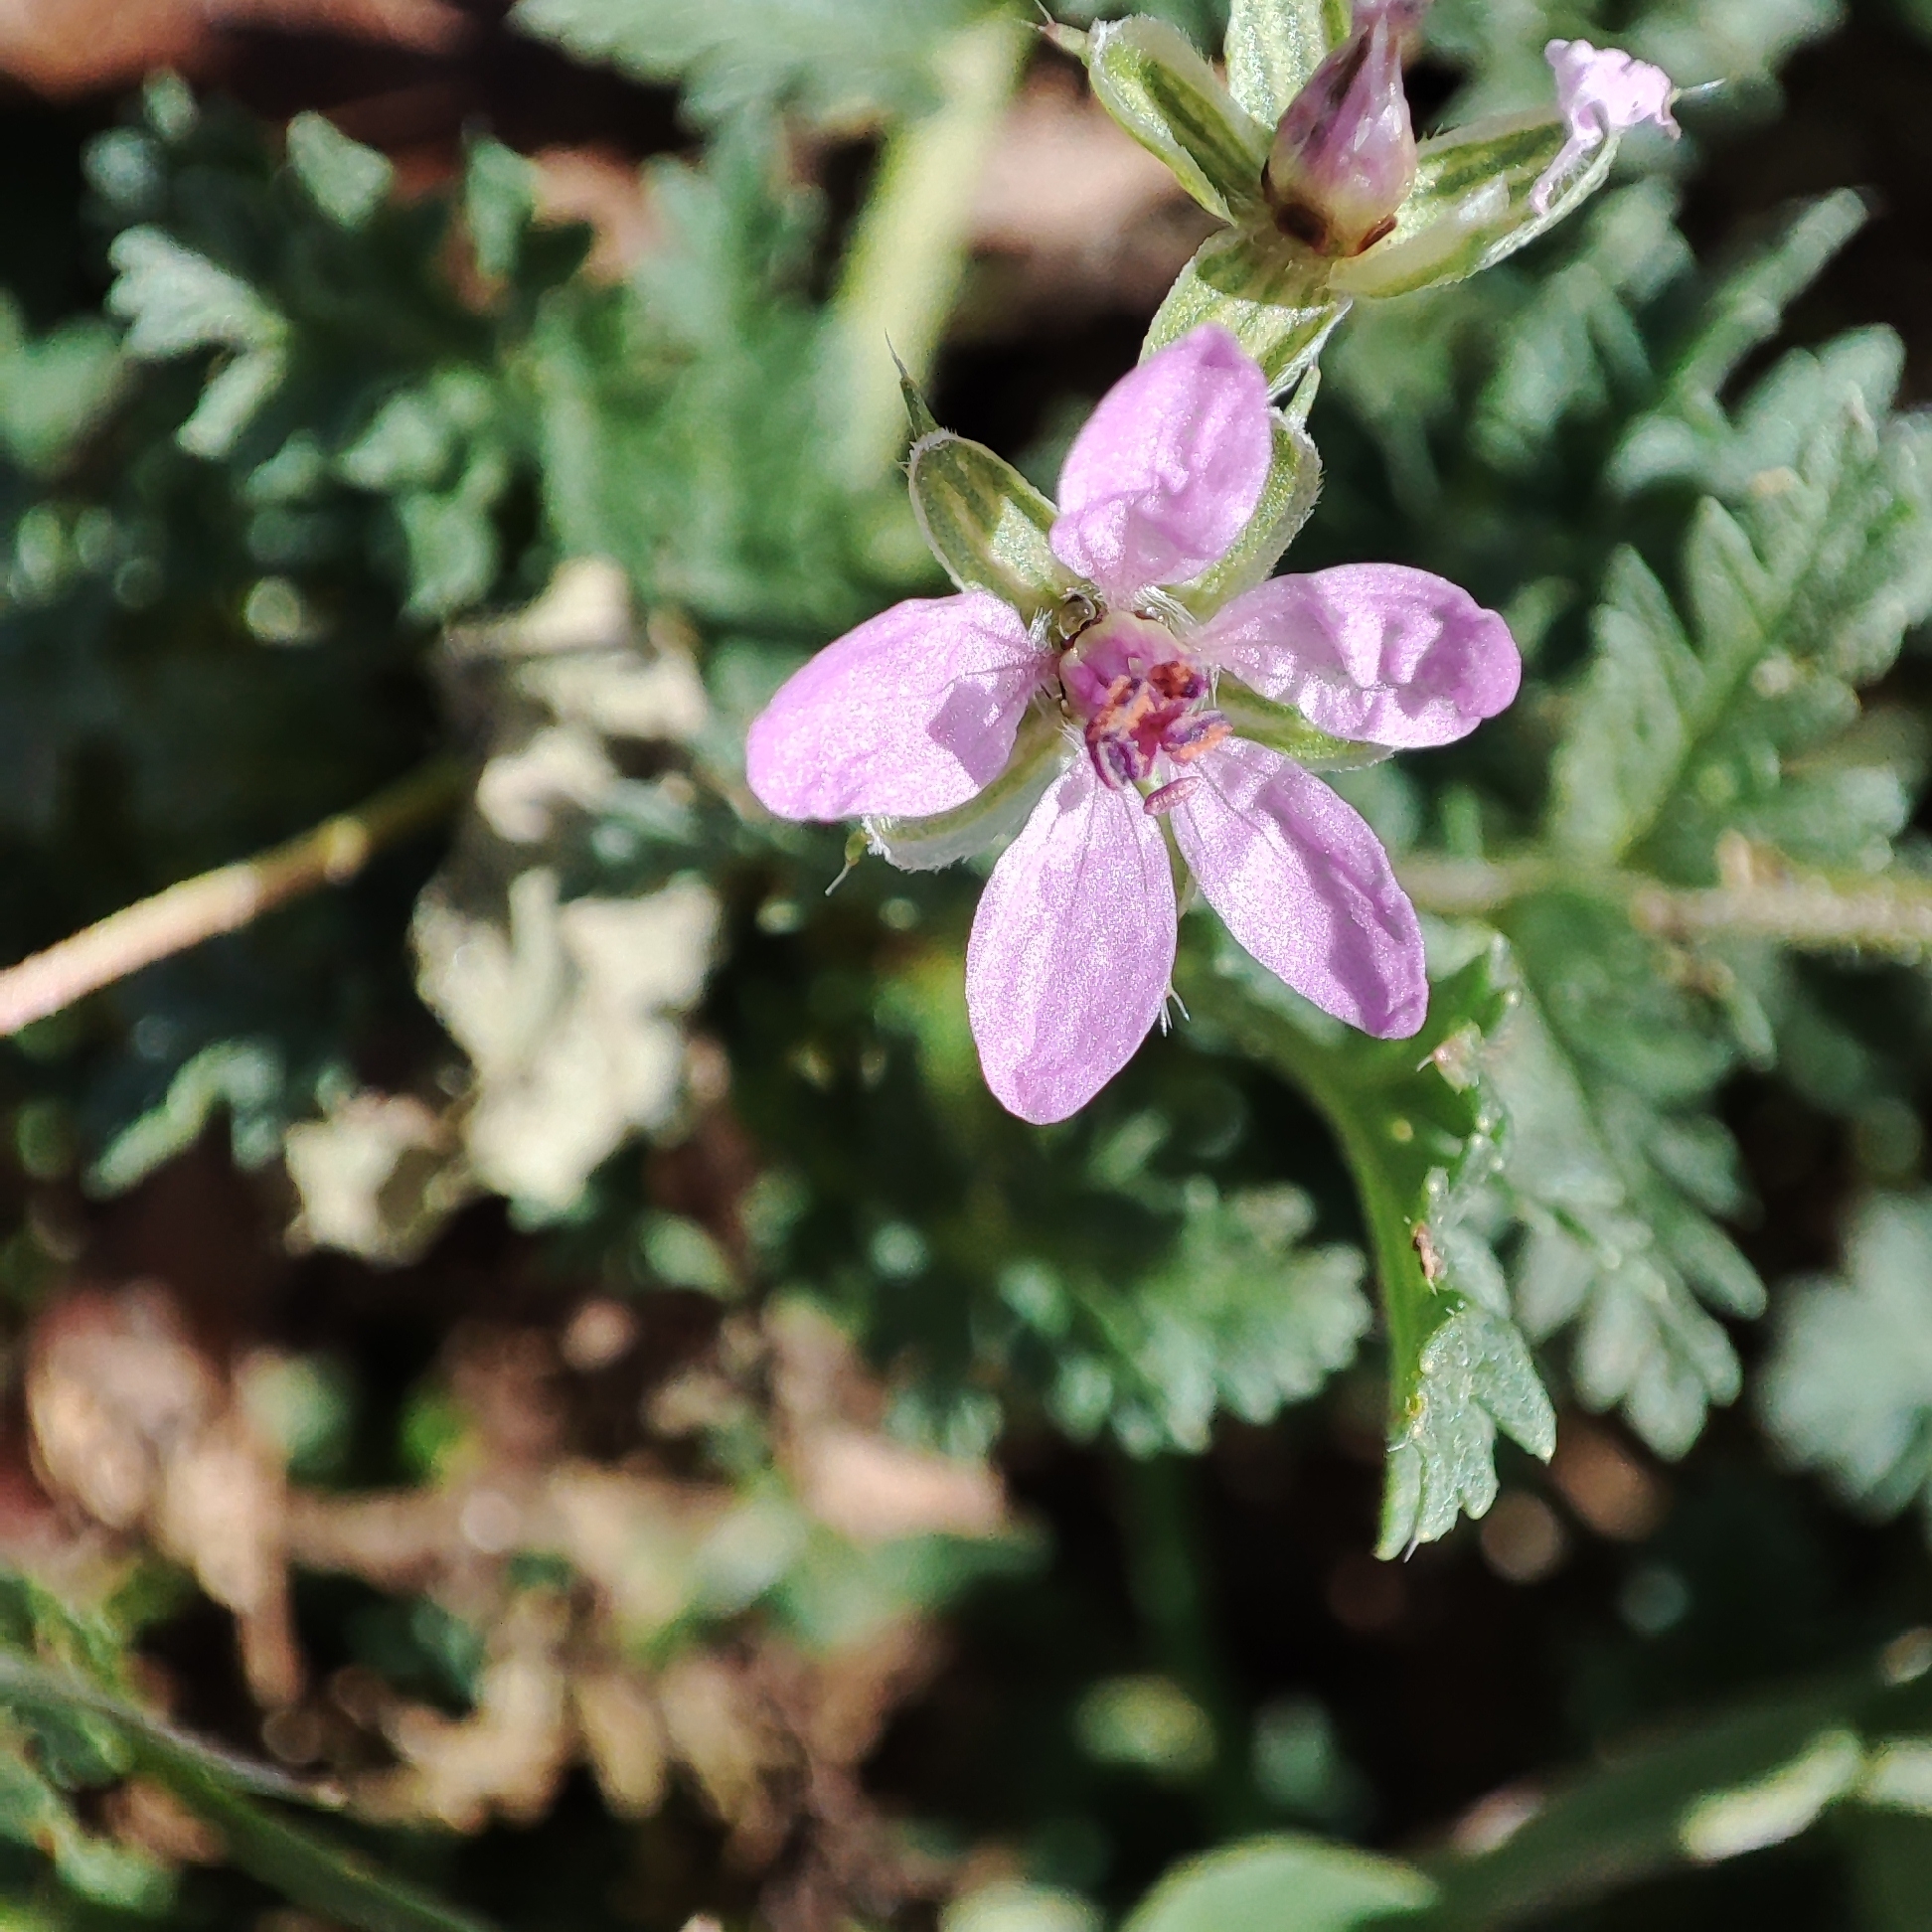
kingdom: Plantae
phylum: Tracheophyta
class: Magnoliopsida
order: Geraniales
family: Geraniaceae
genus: Erodium
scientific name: Erodium cicutarium
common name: Common stork's-bill
